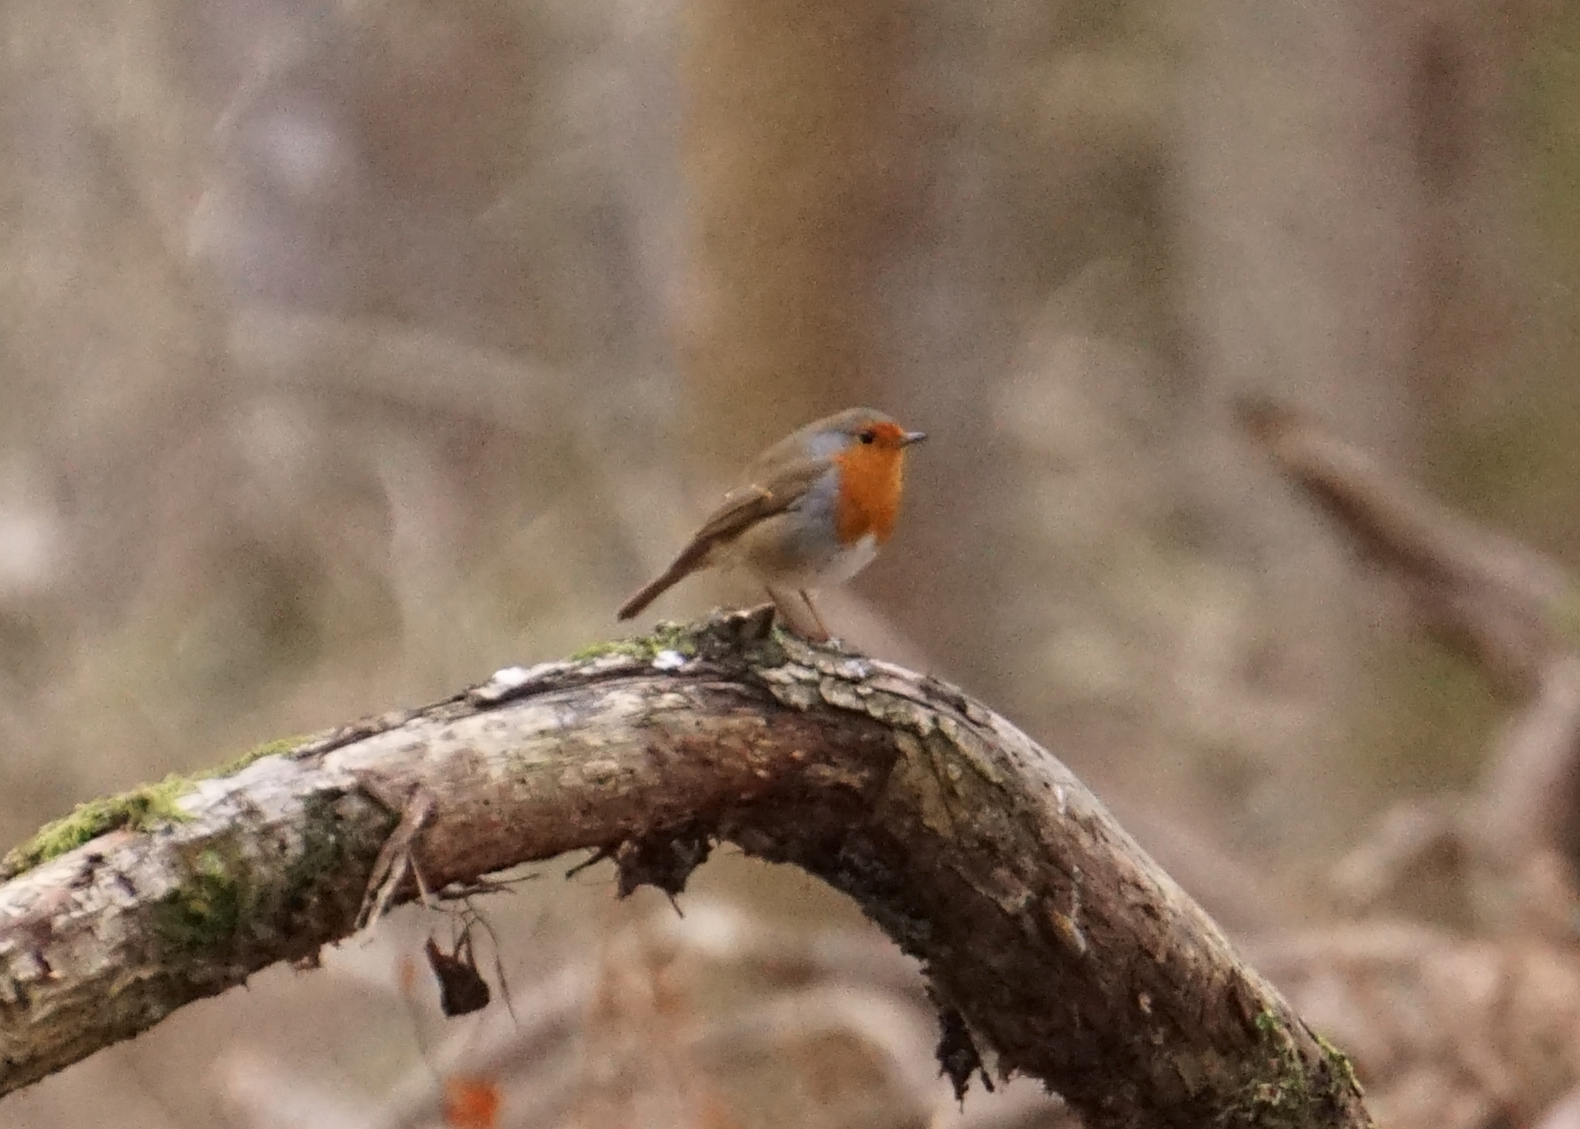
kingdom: Animalia
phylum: Chordata
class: Aves
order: Passeriformes
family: Muscicapidae
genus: Erithacus
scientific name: Erithacus rubecula
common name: European robin
